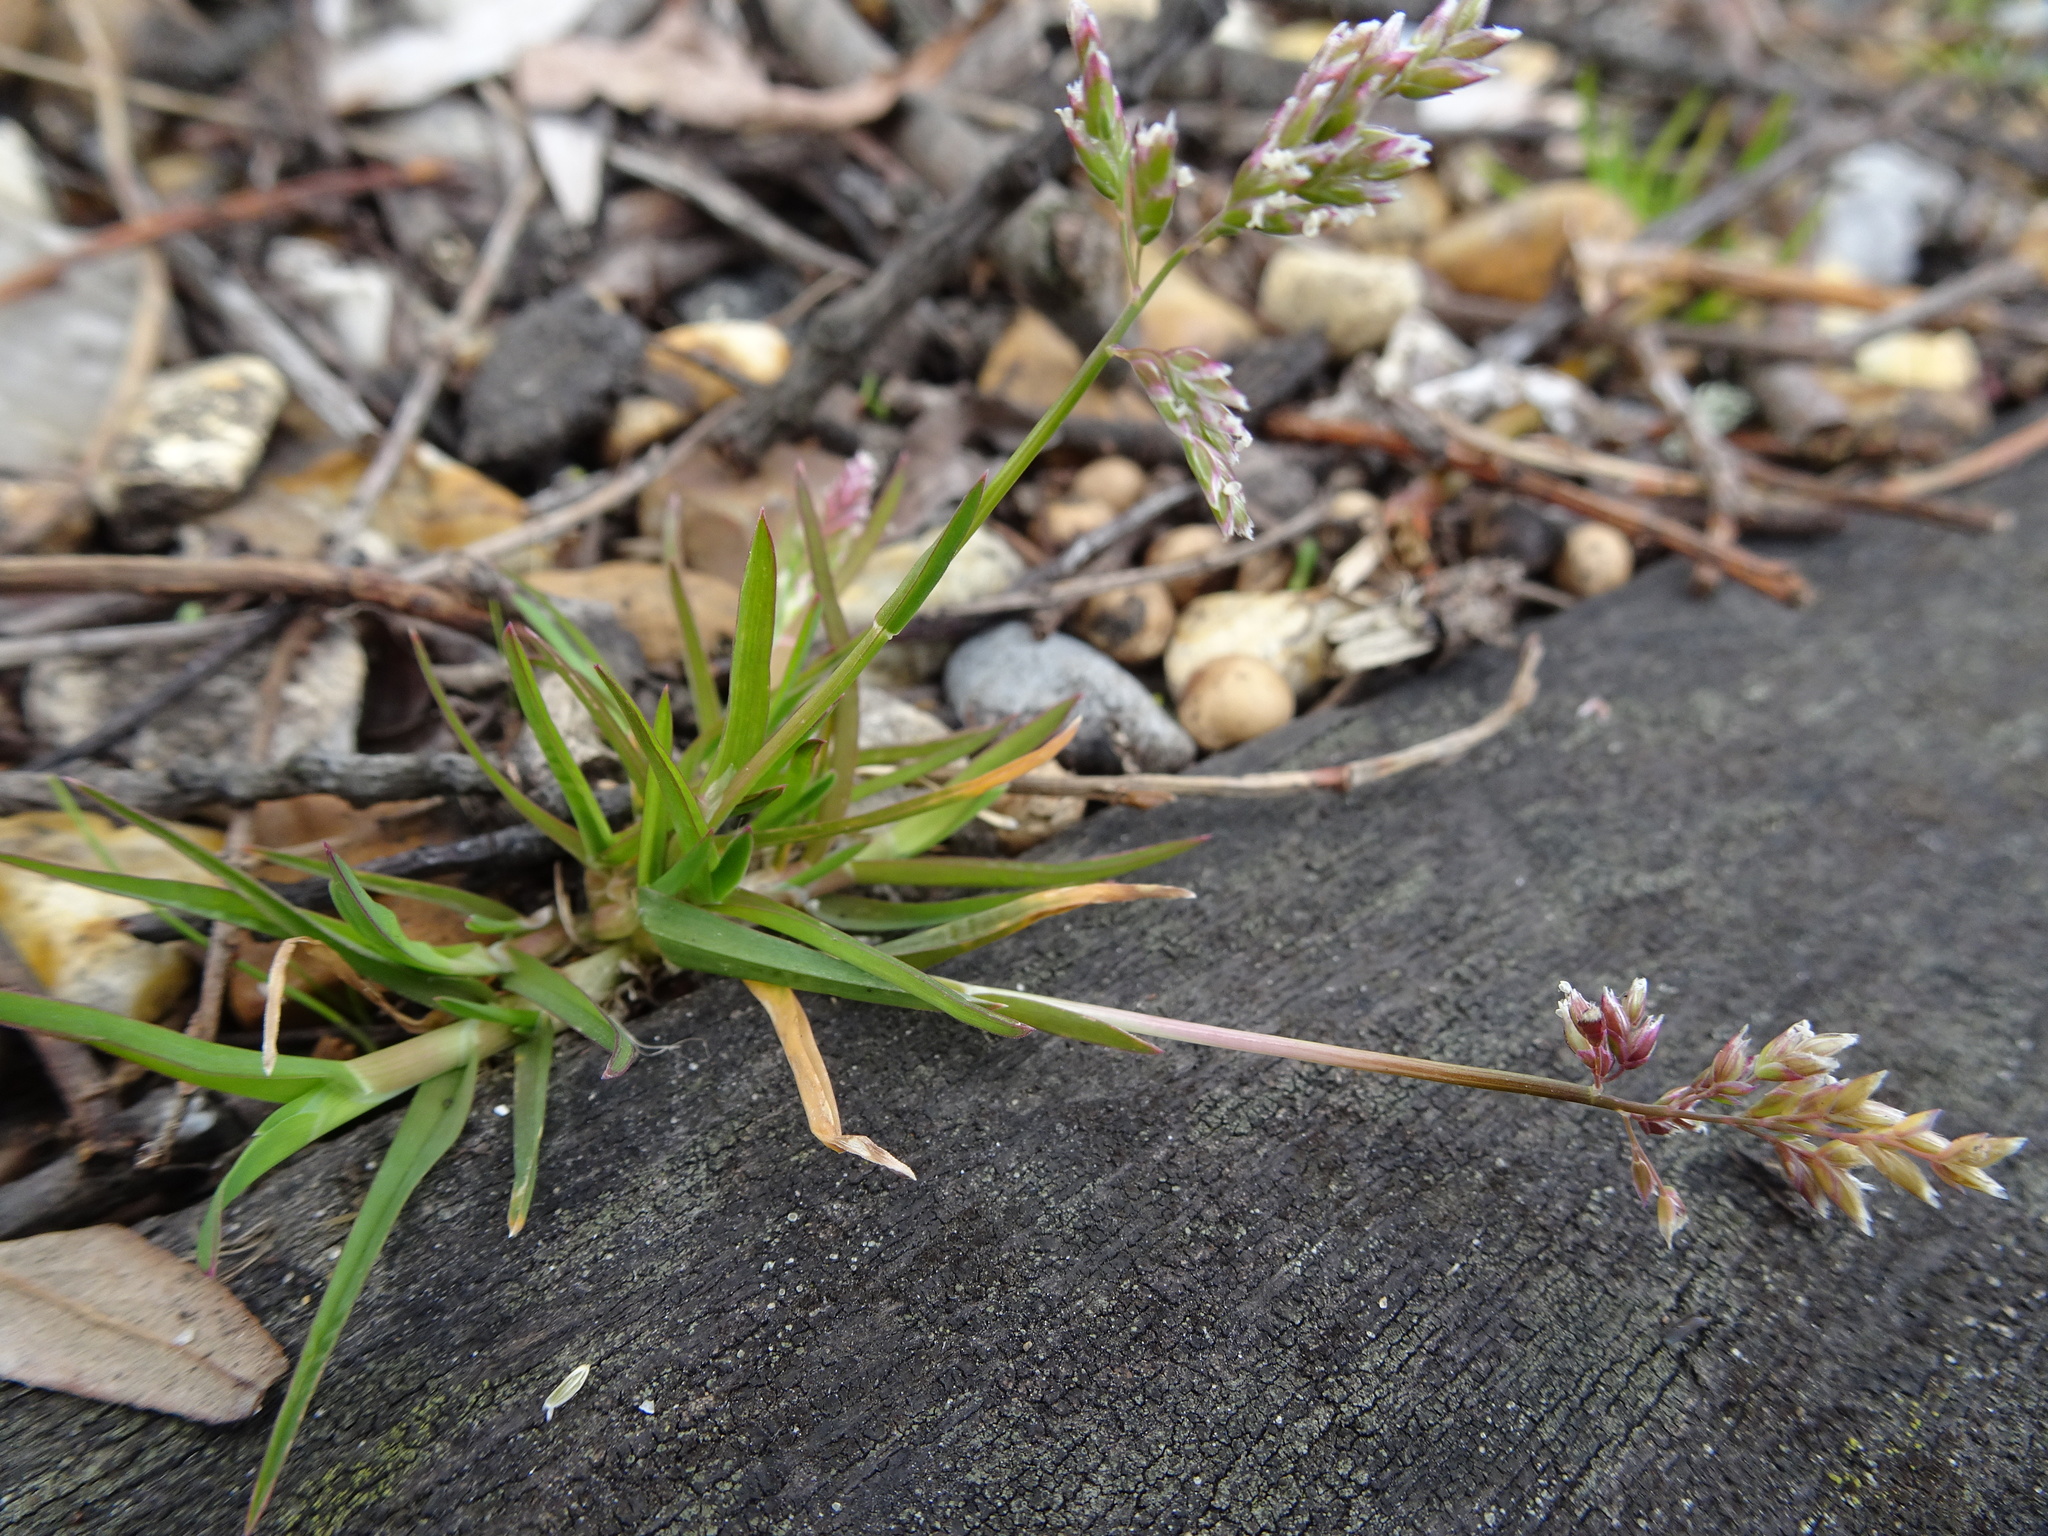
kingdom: Plantae
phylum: Tracheophyta
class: Liliopsida
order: Poales
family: Poaceae
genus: Poa
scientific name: Poa annua
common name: Annual bluegrass
